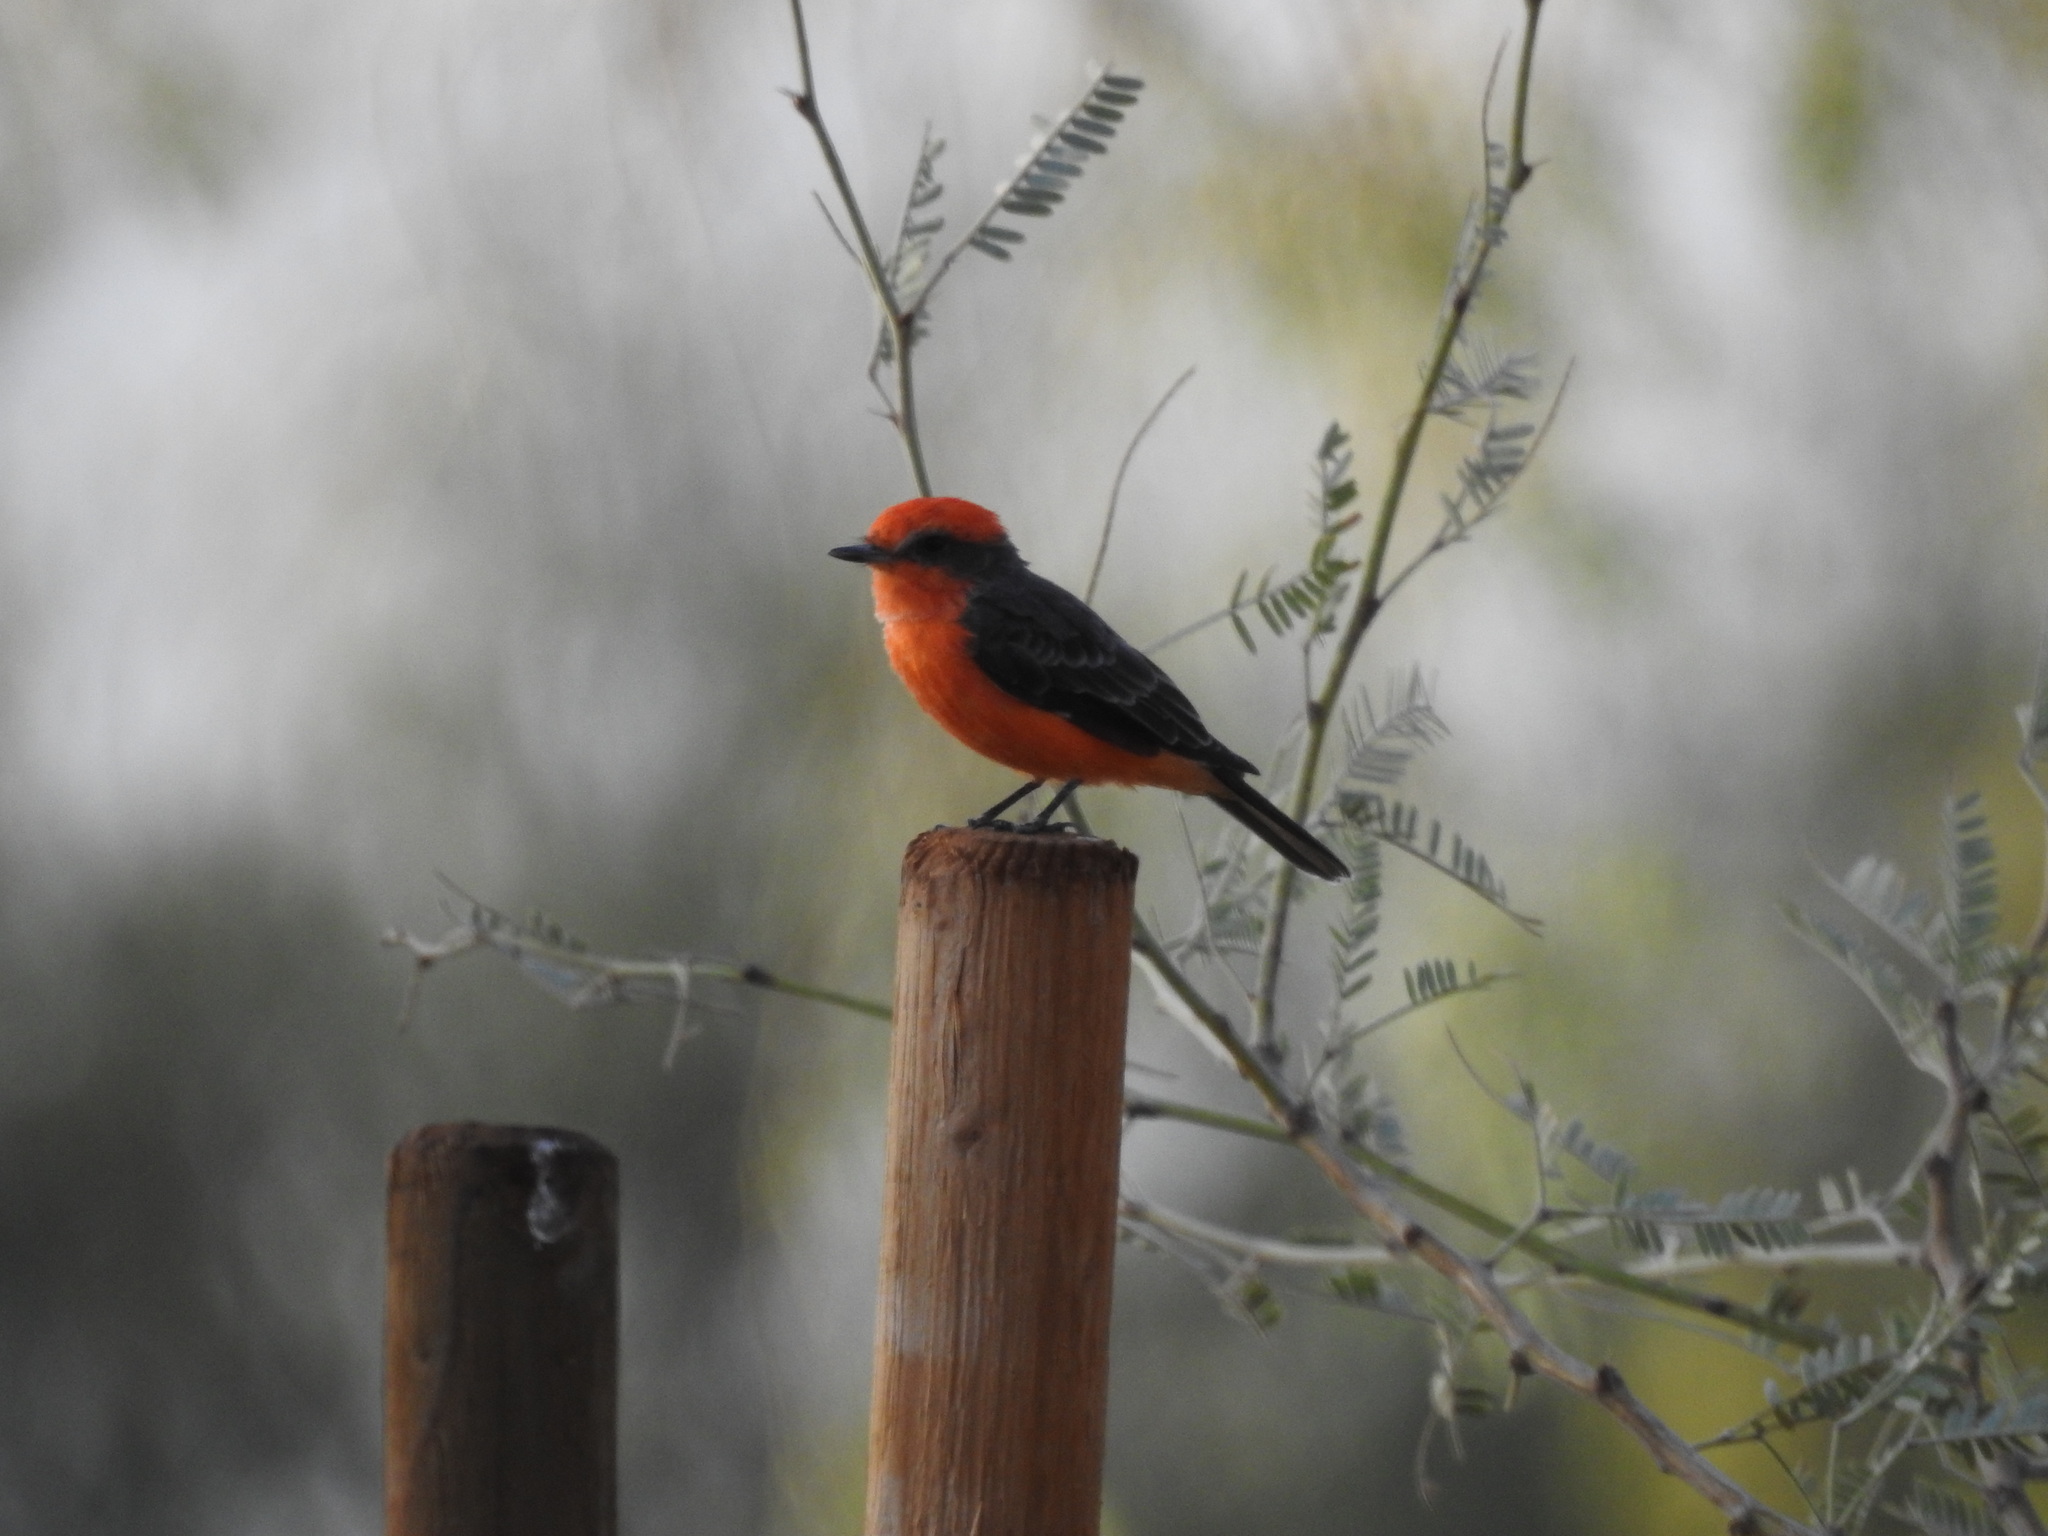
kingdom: Animalia
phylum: Chordata
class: Aves
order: Passeriformes
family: Tyrannidae
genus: Pyrocephalus
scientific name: Pyrocephalus rubinus
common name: Vermilion flycatcher
